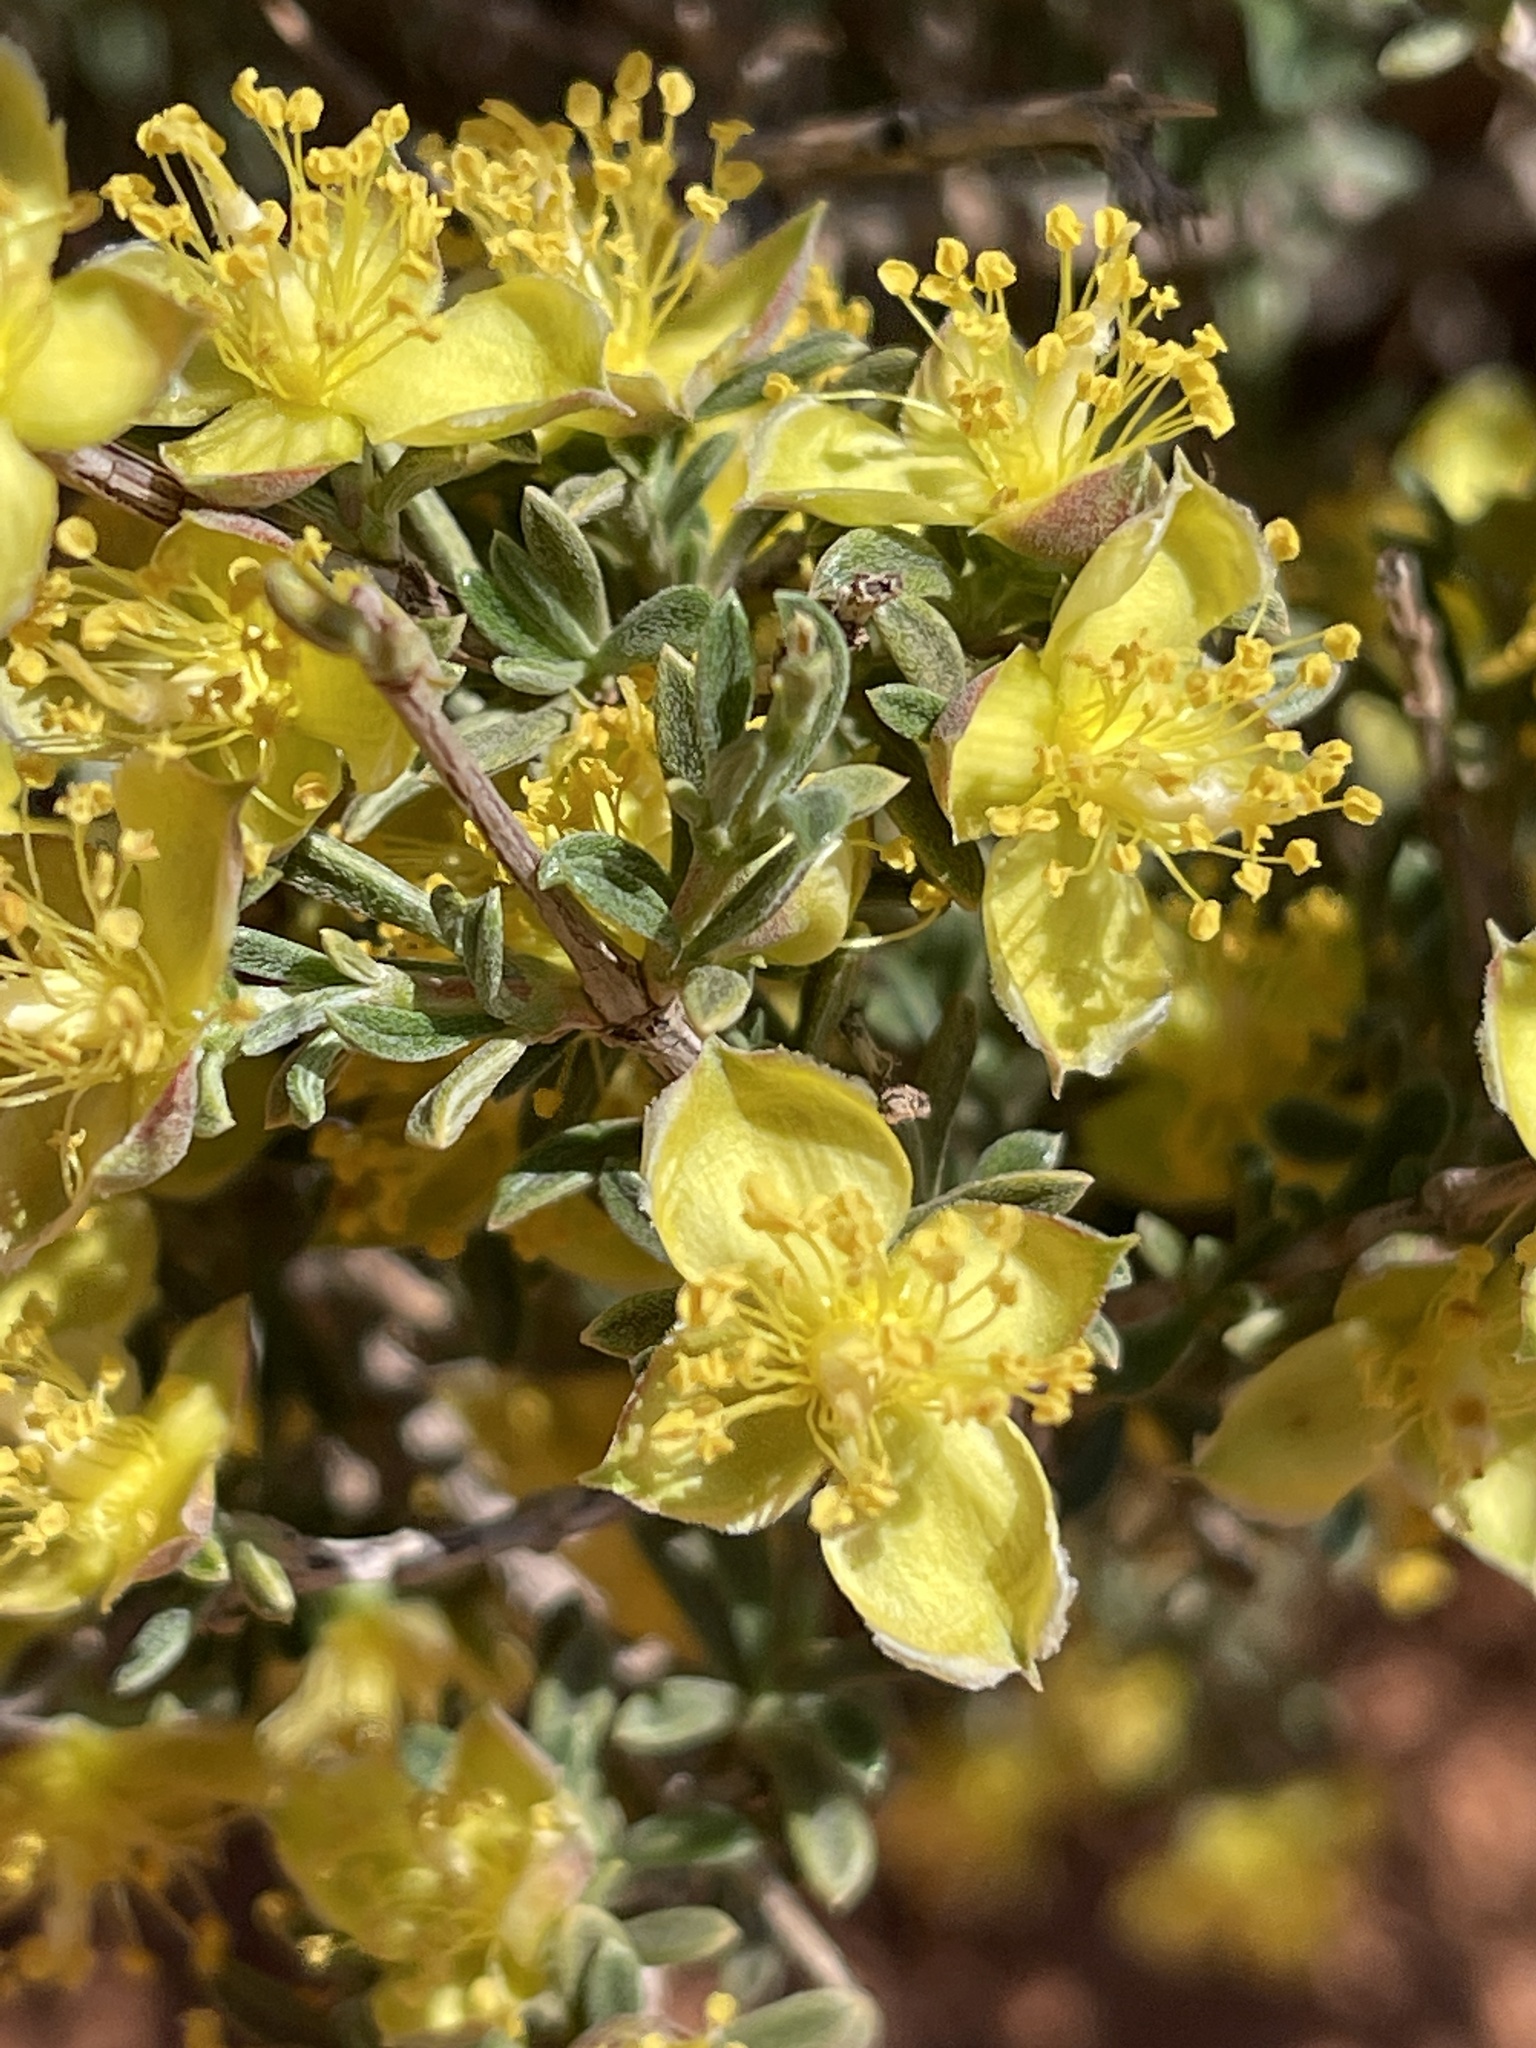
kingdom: Plantae
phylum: Tracheophyta
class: Magnoliopsida
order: Rosales
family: Rosaceae
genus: Coleogyne
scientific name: Coleogyne ramosissima
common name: Blackbrush
